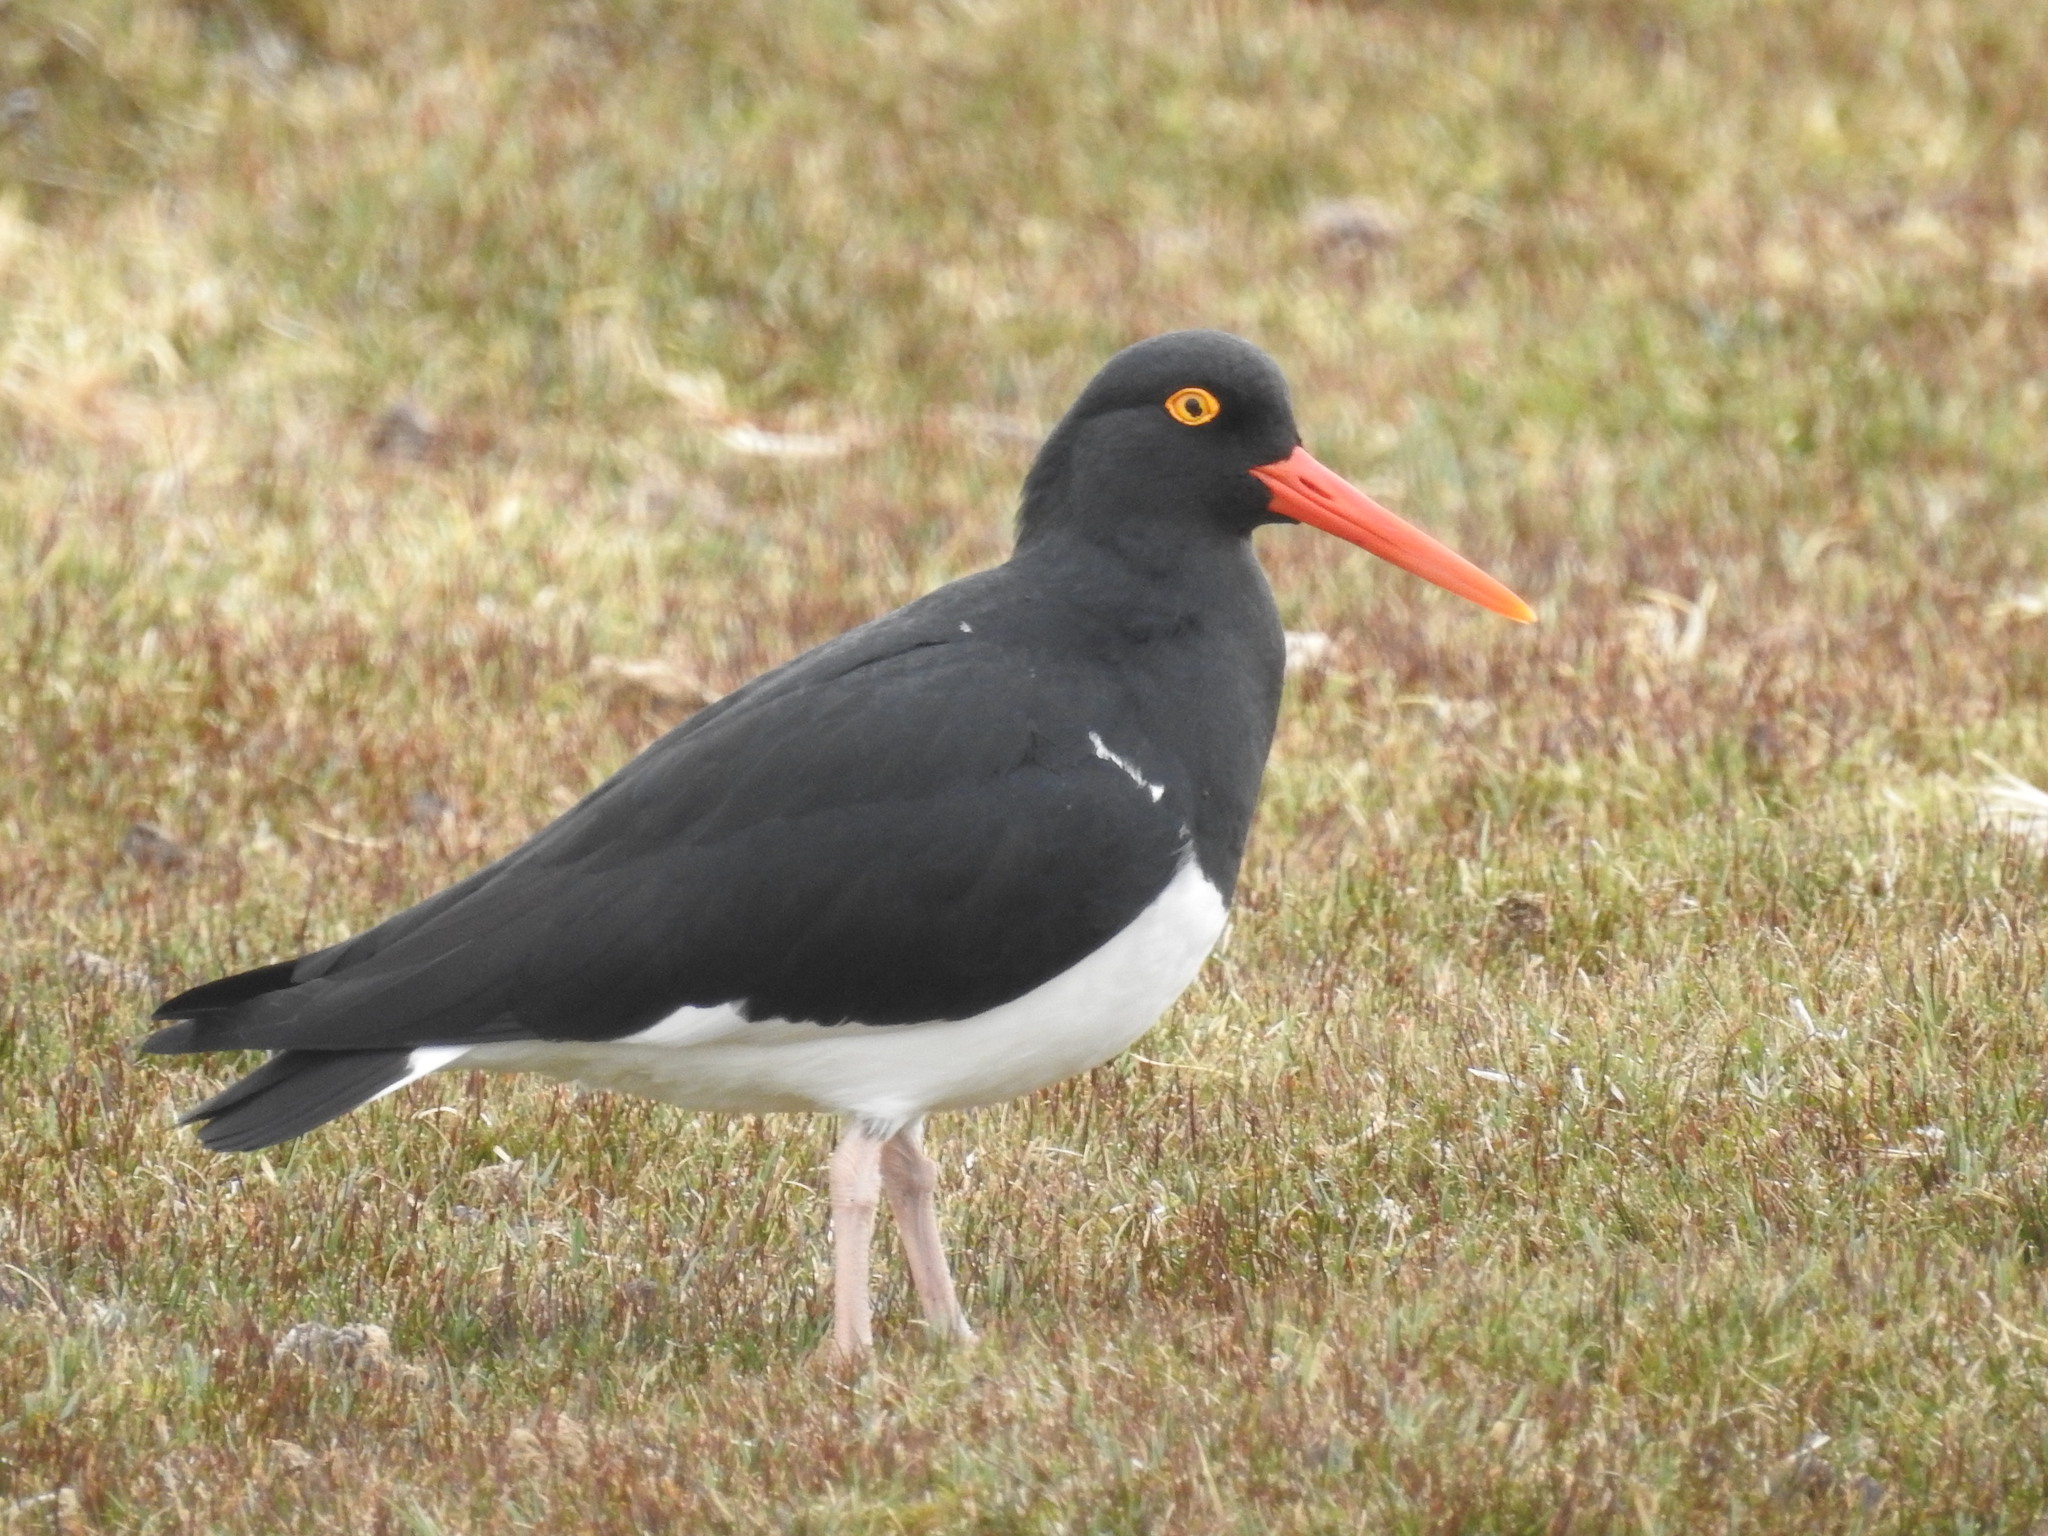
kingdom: Animalia
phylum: Chordata
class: Aves
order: Charadriiformes
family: Haematopodidae
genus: Haematopus
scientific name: Haematopus leucopodus
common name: Magellanic oystercatcher
